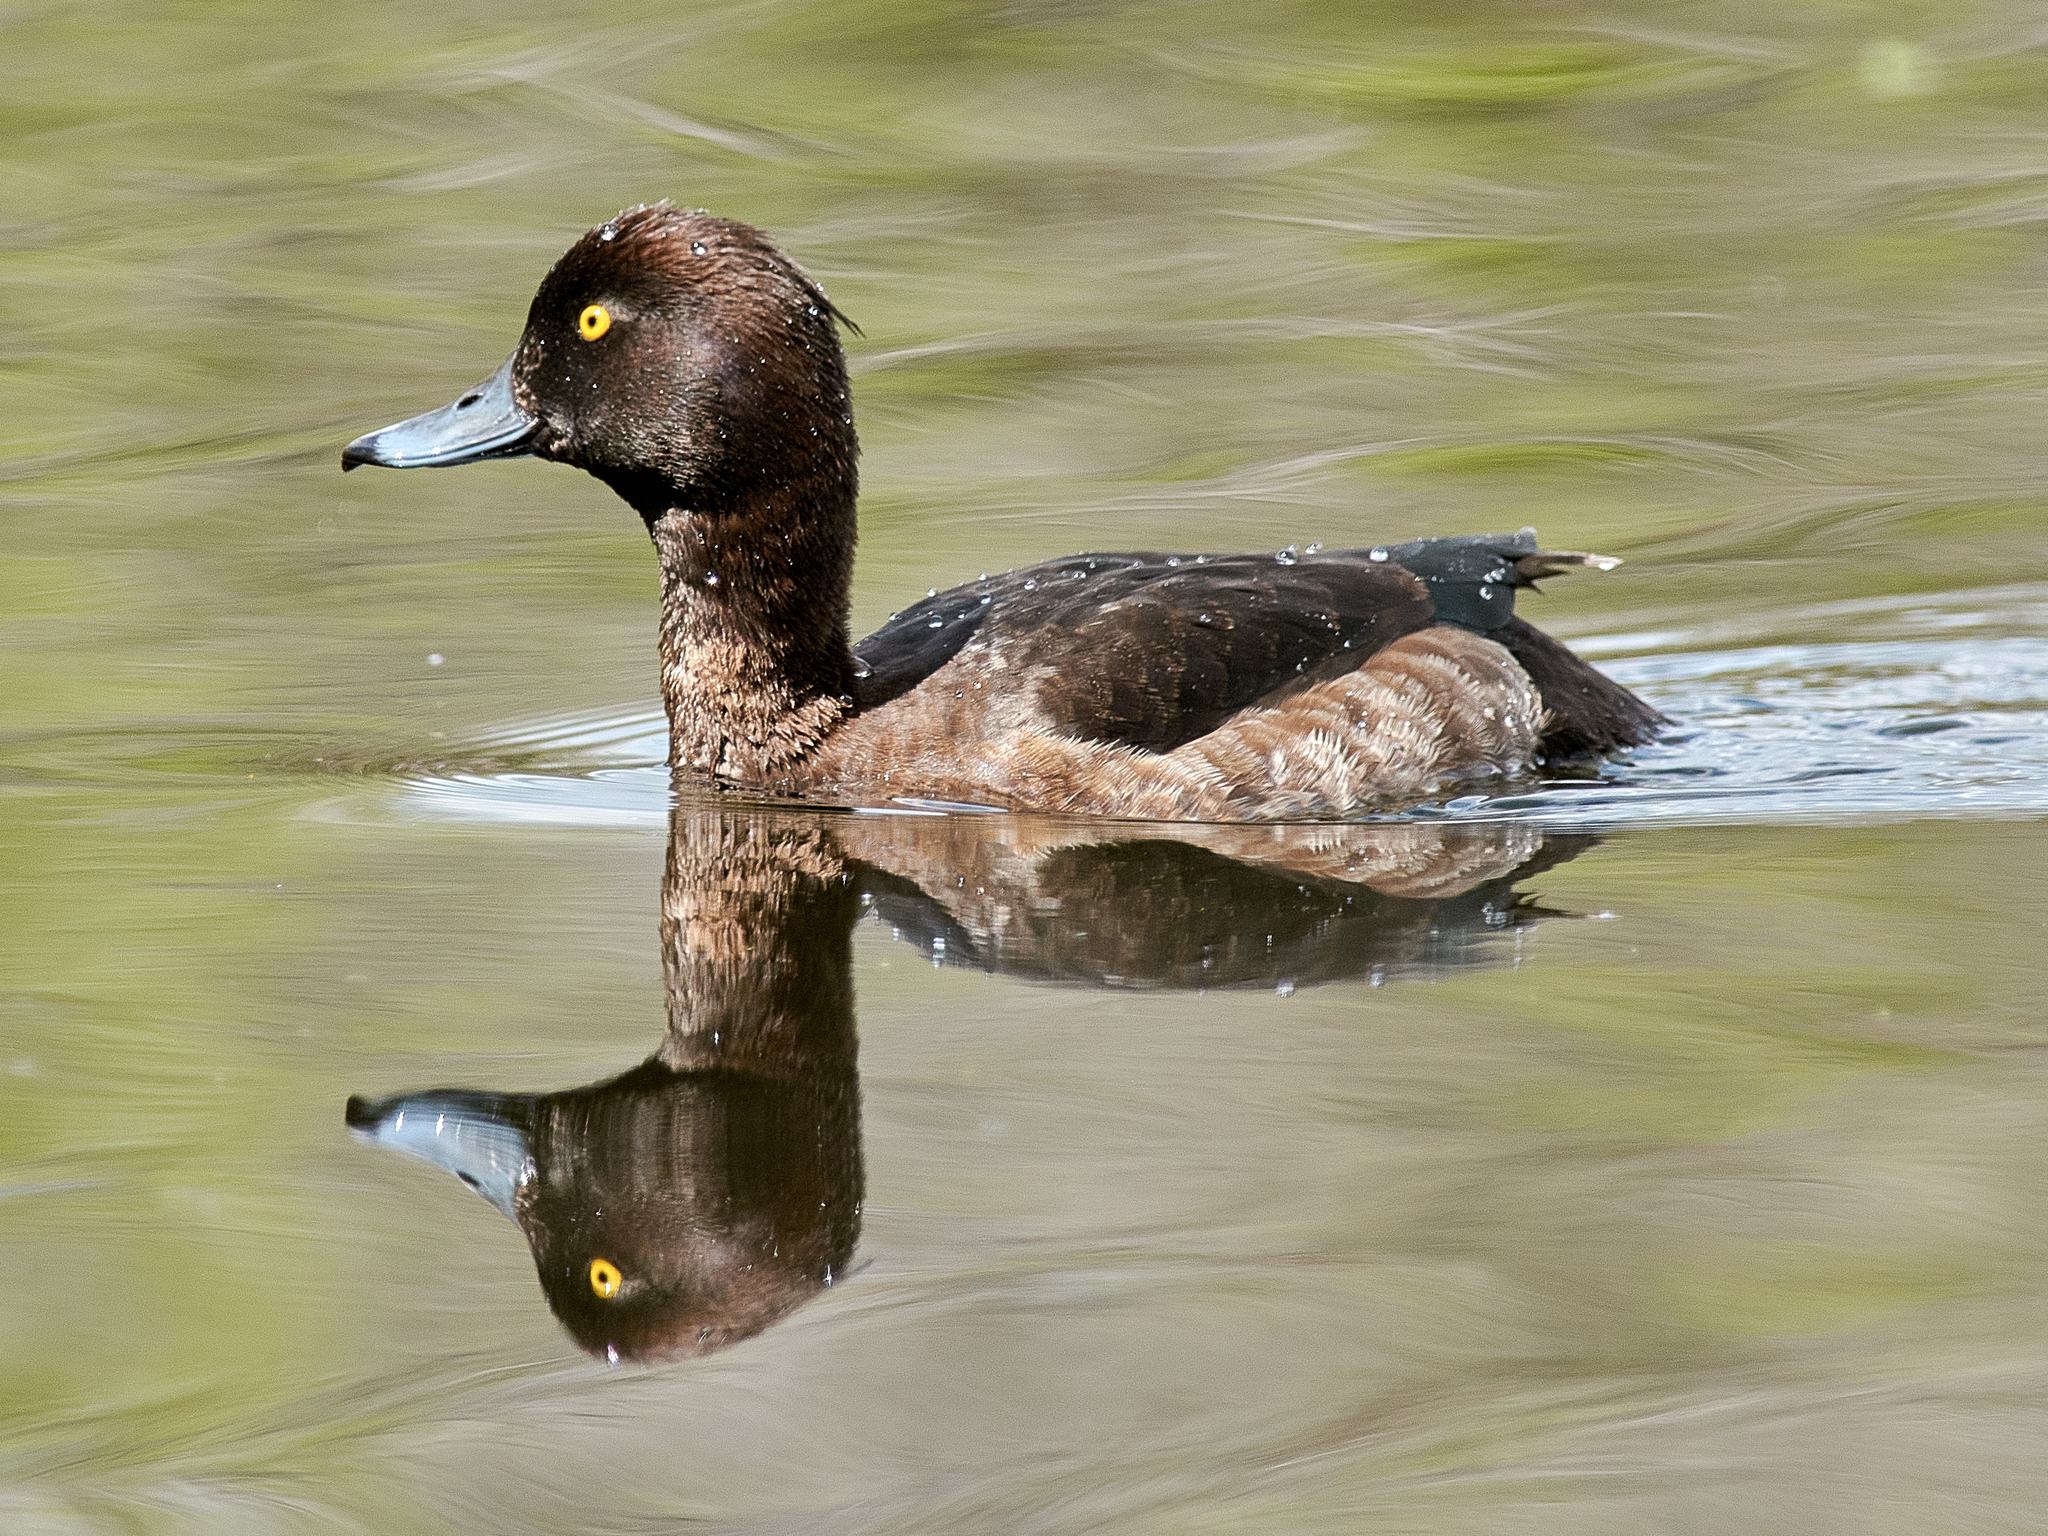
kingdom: Animalia
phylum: Chordata
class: Aves
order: Anseriformes
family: Anatidae
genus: Aythya
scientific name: Aythya fuligula
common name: Tufted duck
